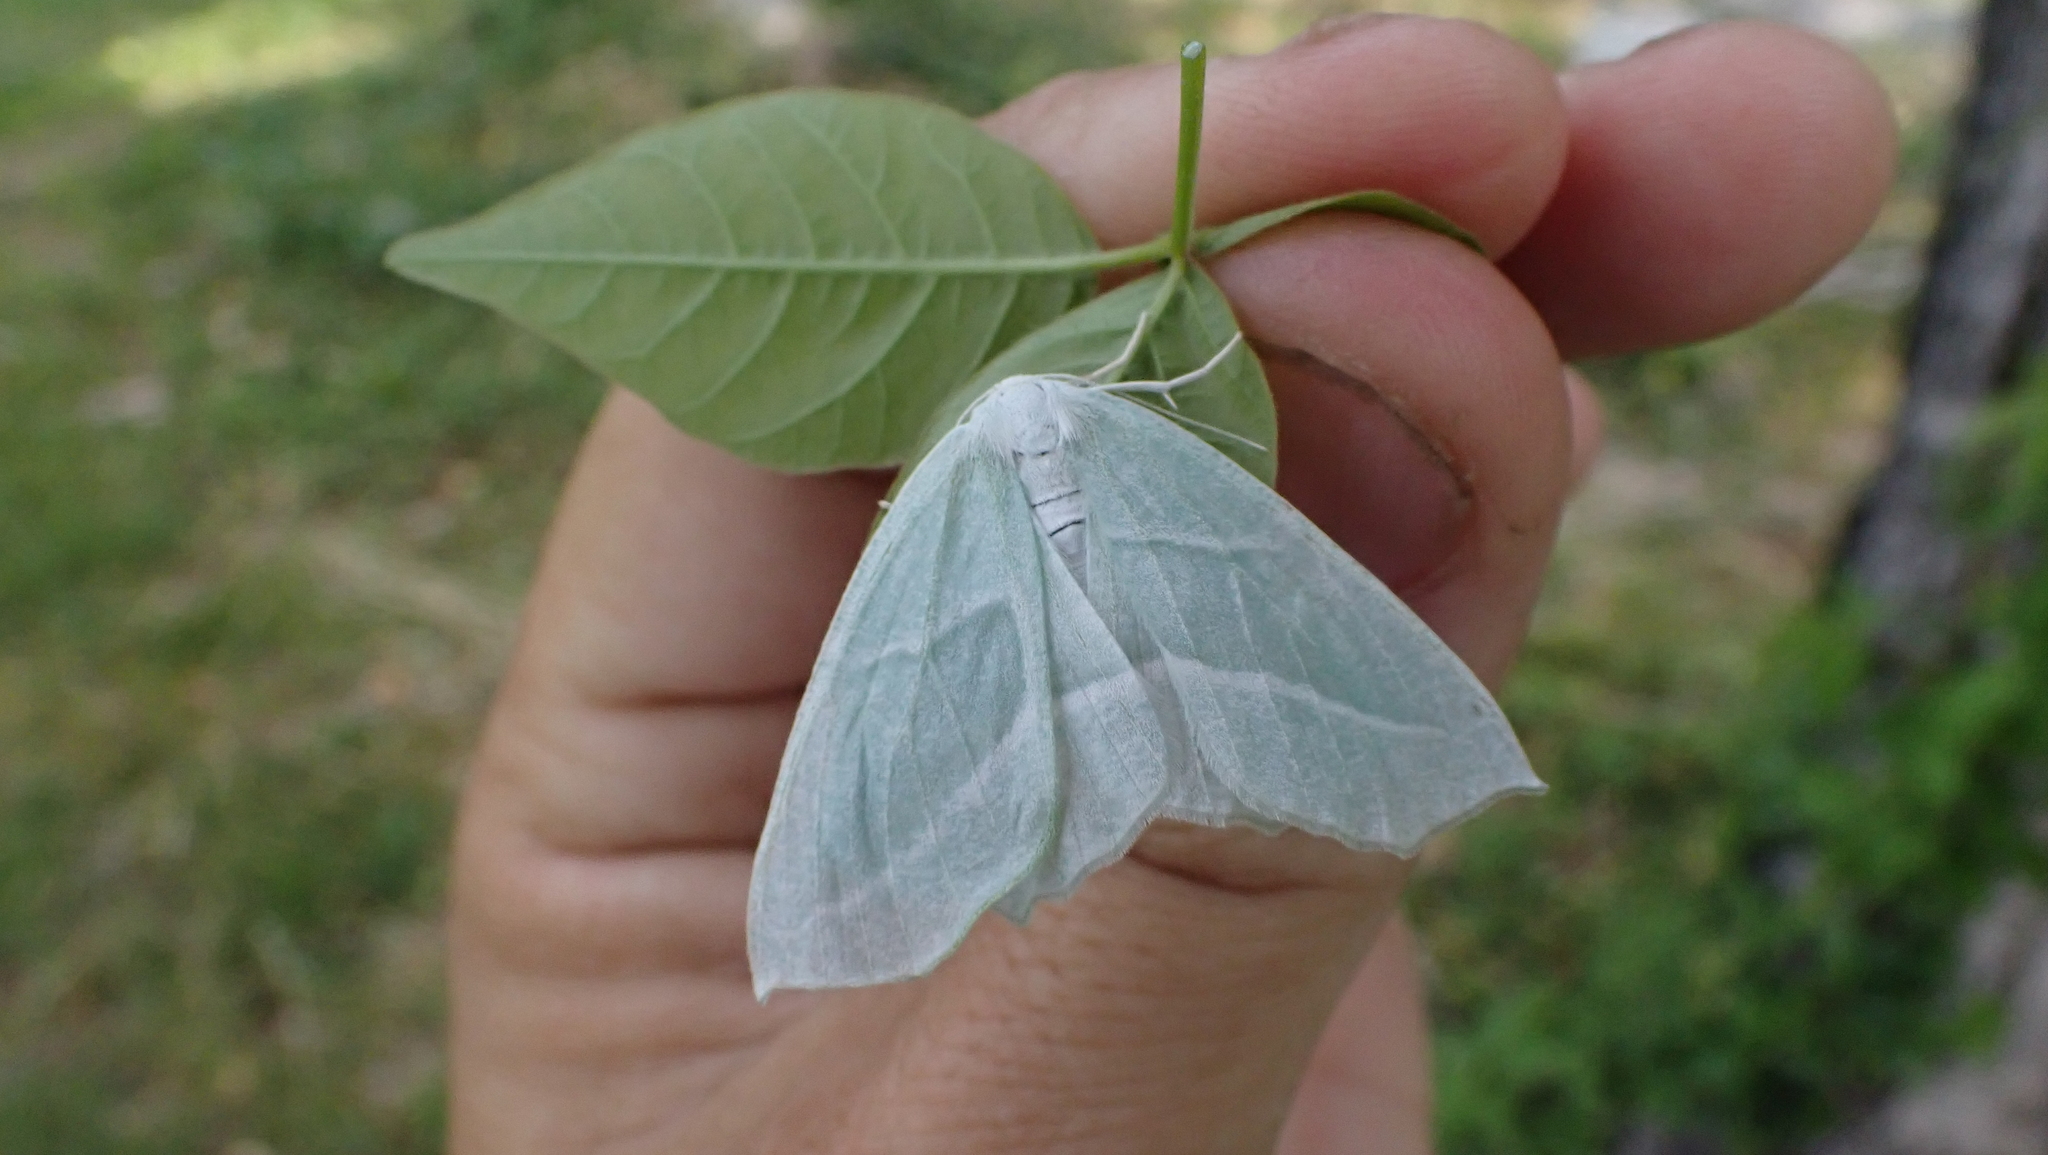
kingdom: Animalia
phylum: Arthropoda
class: Insecta
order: Lepidoptera
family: Geometridae
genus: Campaea
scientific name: Campaea perlata
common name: Fringed looper
